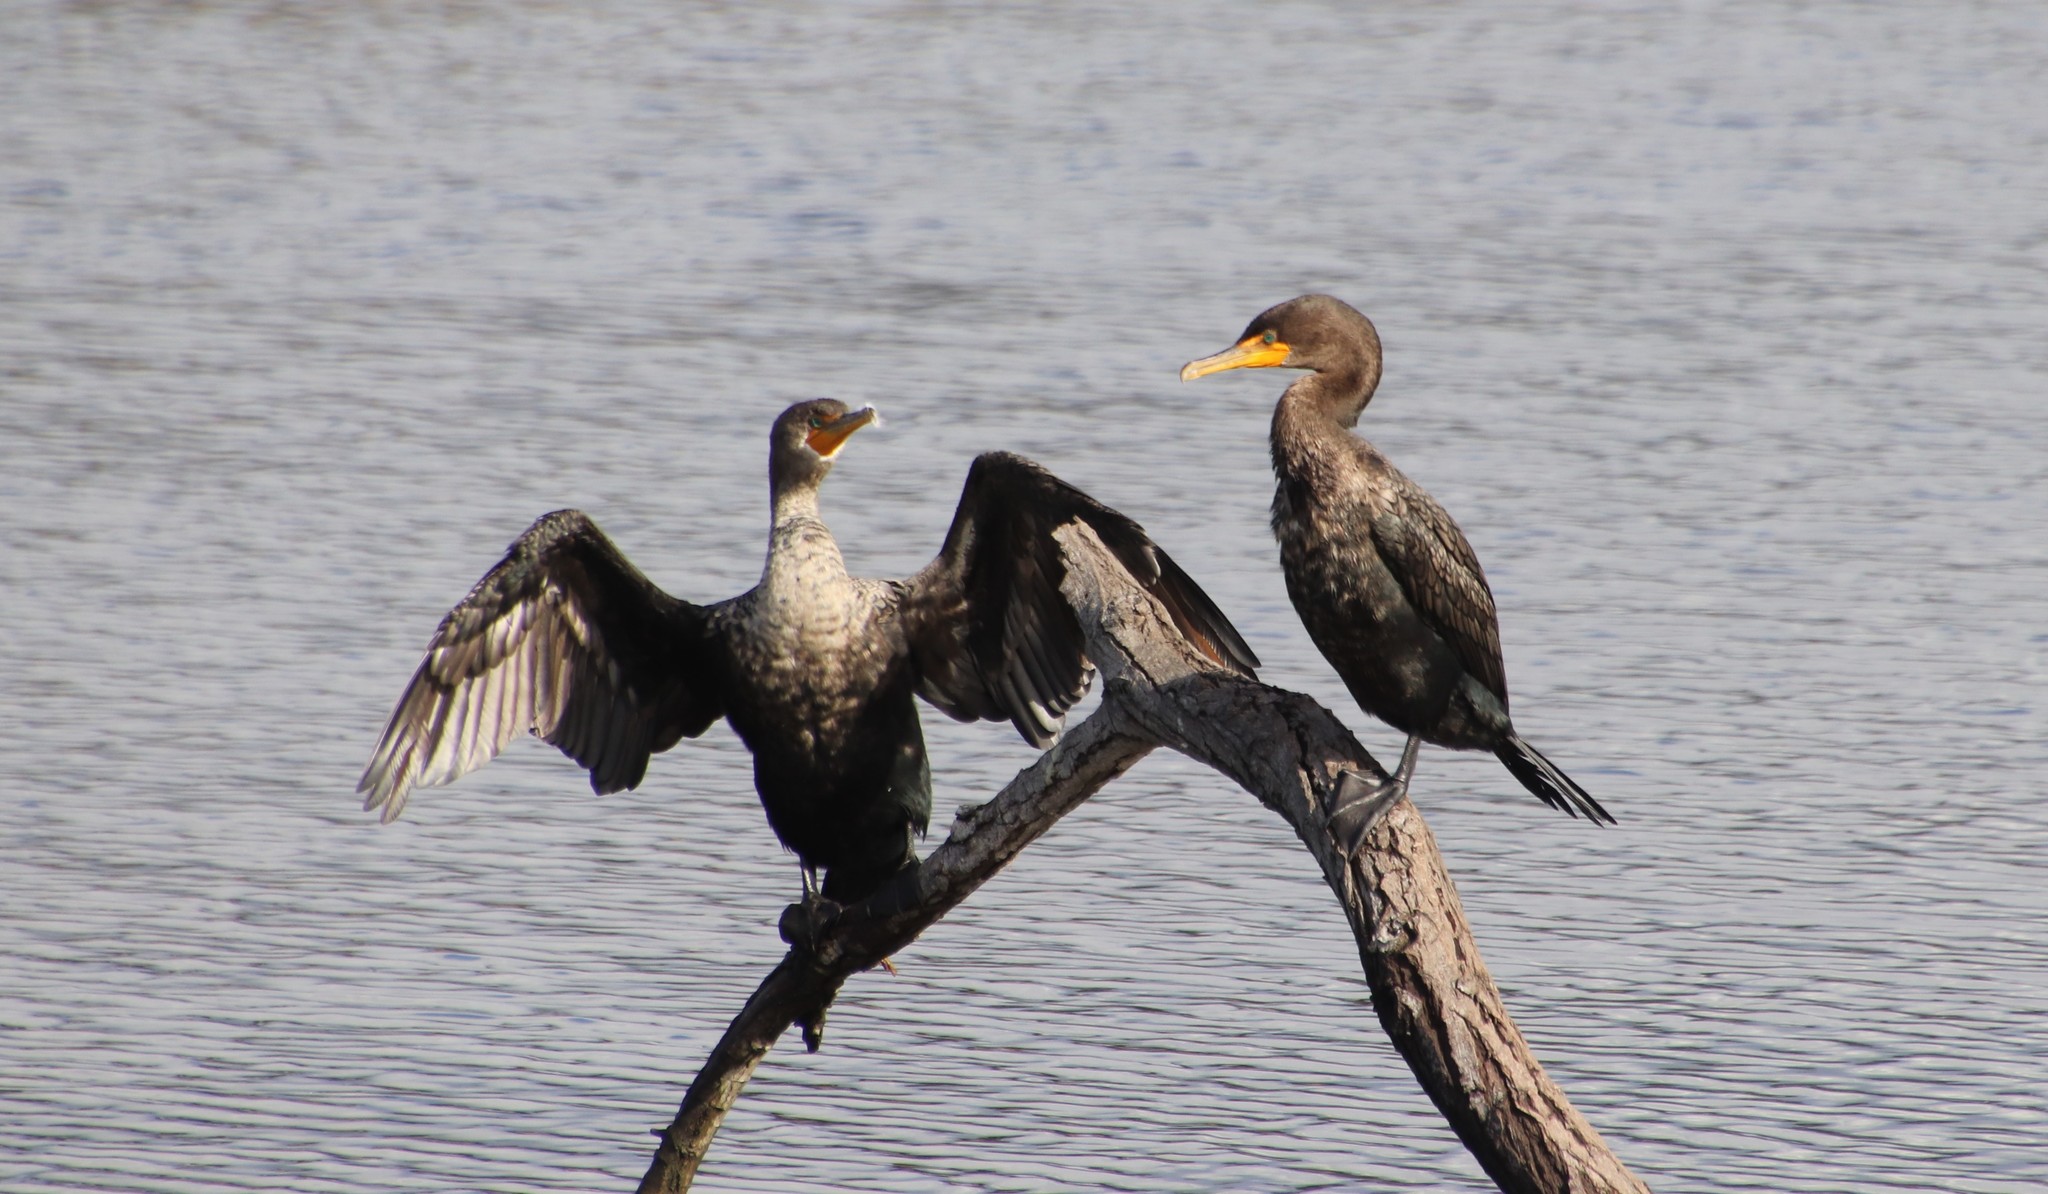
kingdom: Animalia
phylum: Chordata
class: Aves
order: Suliformes
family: Phalacrocoracidae
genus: Phalacrocorax
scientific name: Phalacrocorax auritus
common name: Double-crested cormorant
